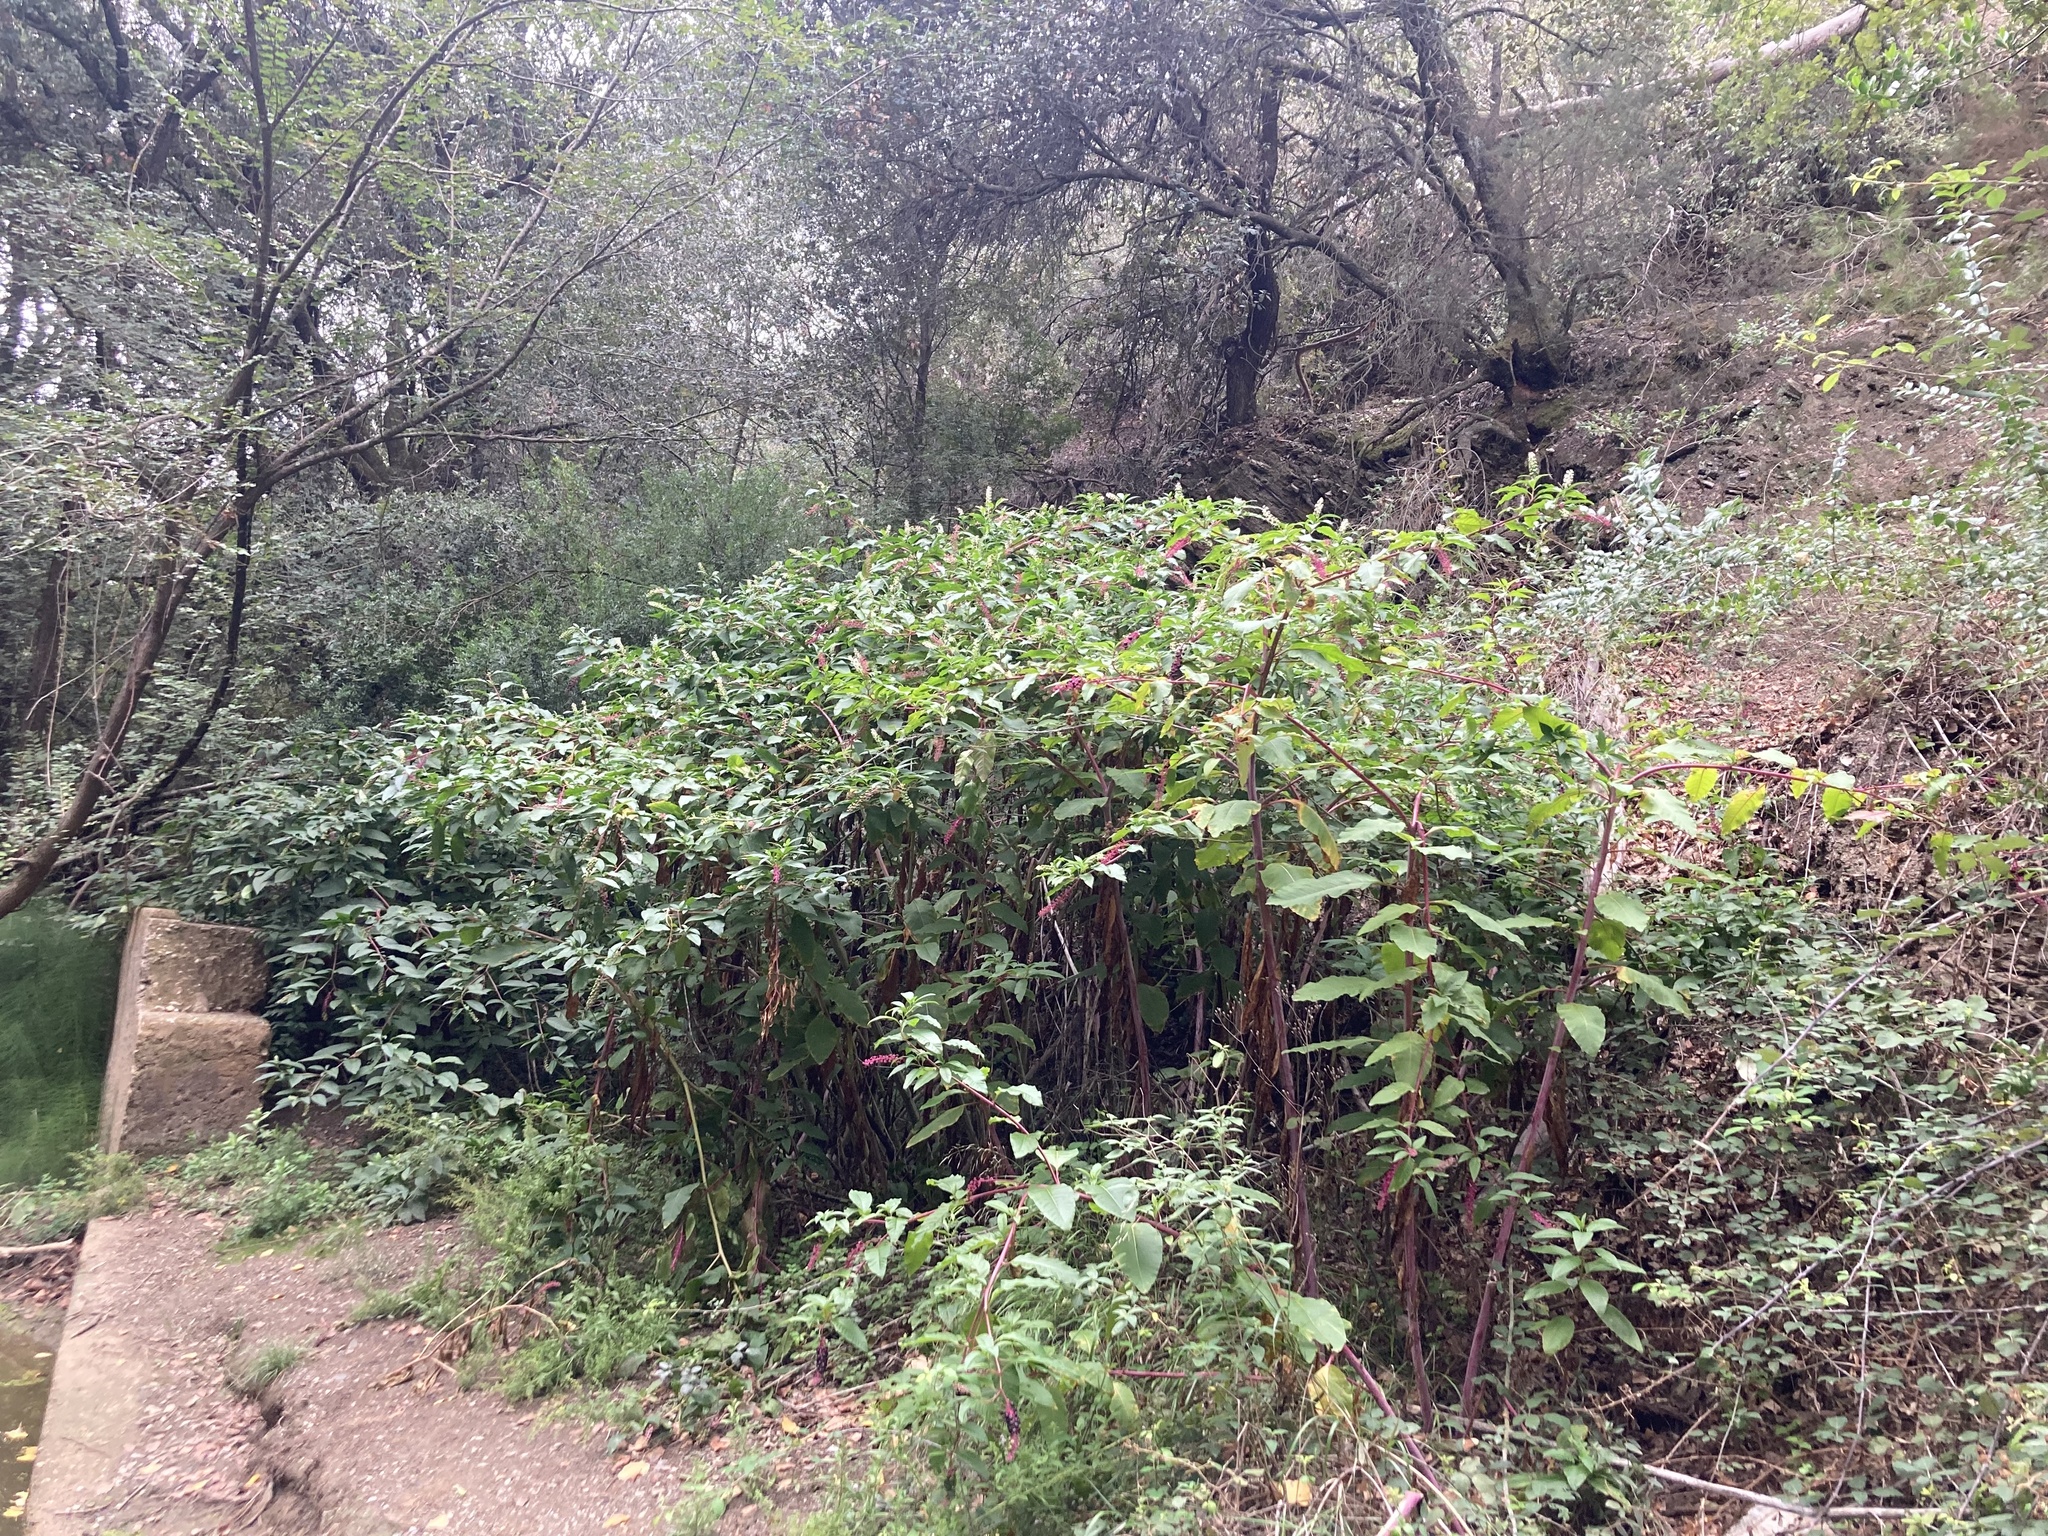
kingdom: Plantae
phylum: Tracheophyta
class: Magnoliopsida
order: Caryophyllales
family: Phytolaccaceae
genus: Phytolacca
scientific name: Phytolacca americana
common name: American pokeweed
